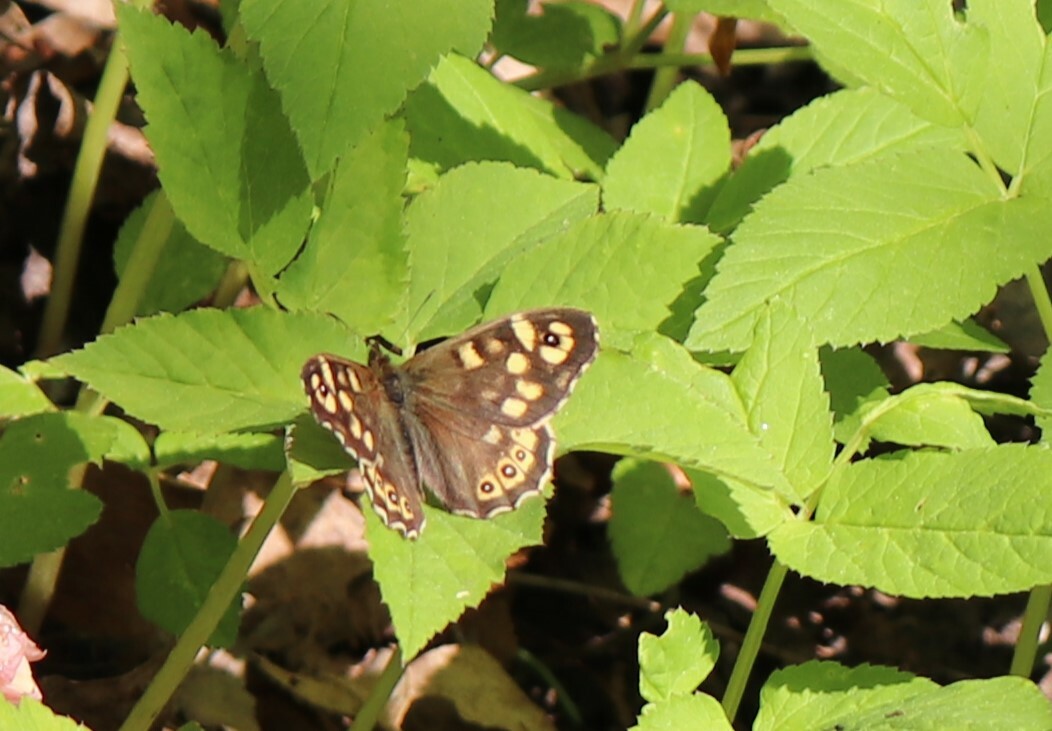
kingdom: Animalia
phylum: Arthropoda
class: Insecta
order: Lepidoptera
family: Nymphalidae
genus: Pararge
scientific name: Pararge aegeria
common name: Speckled wood
